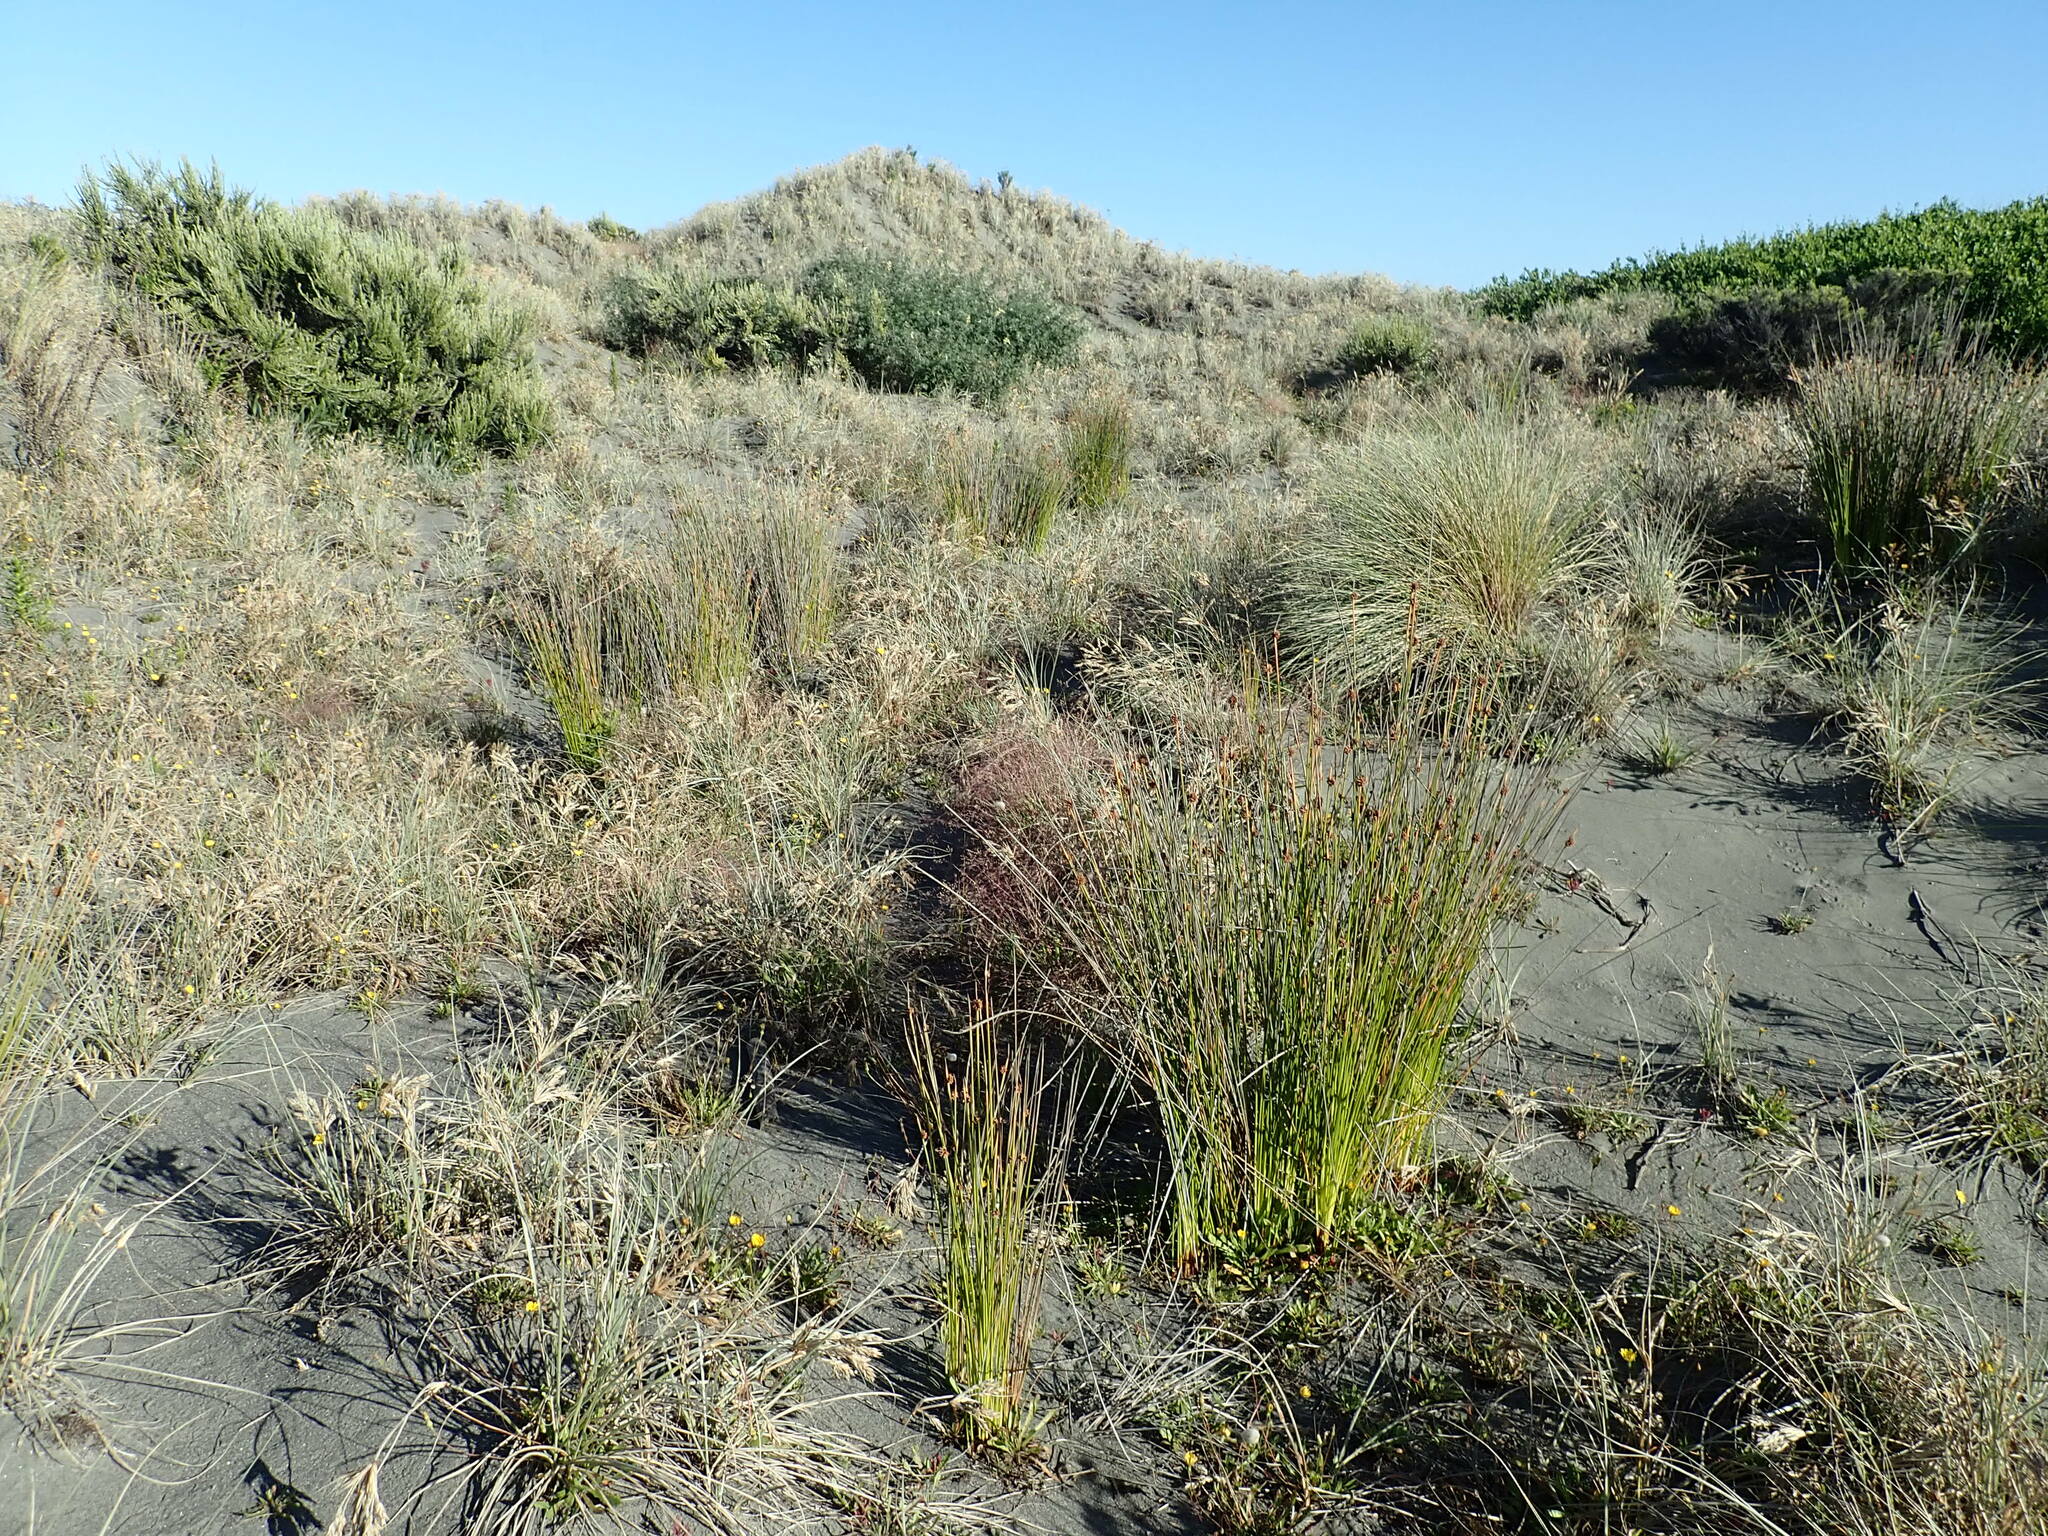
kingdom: Plantae
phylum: Tracheophyta
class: Liliopsida
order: Poales
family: Cyperaceae
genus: Ficinia
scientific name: Ficinia nodosa
